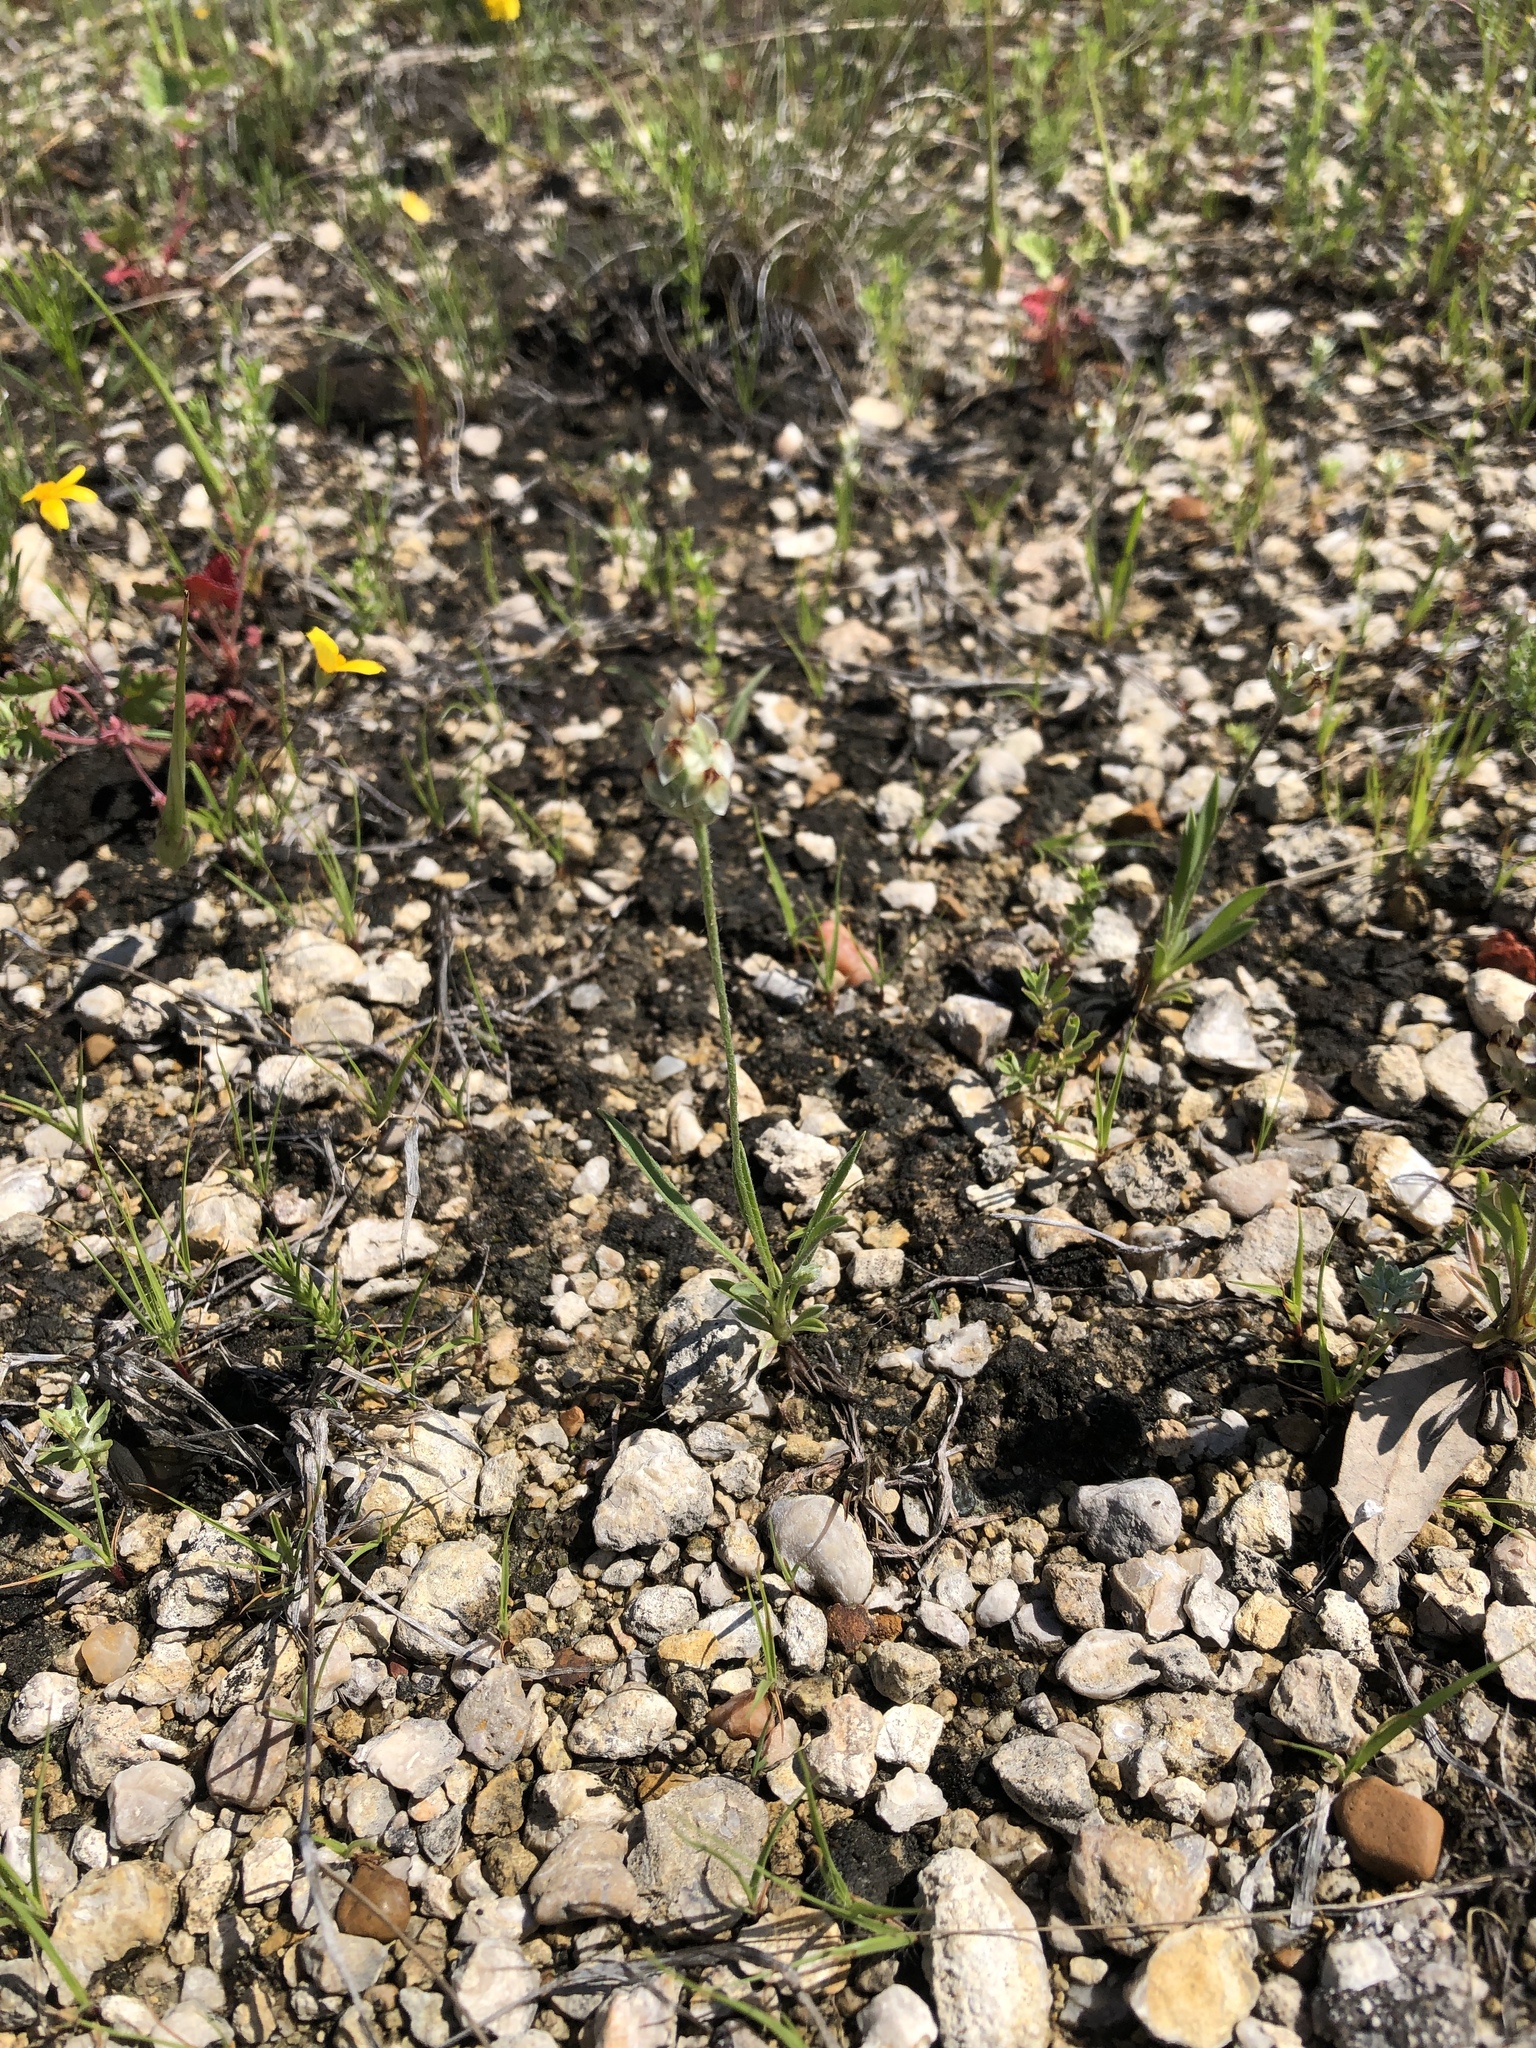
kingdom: Plantae
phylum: Tracheophyta
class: Magnoliopsida
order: Lamiales
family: Plantaginaceae
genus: Plantago
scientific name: Plantago helleri
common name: Heller's plantain
